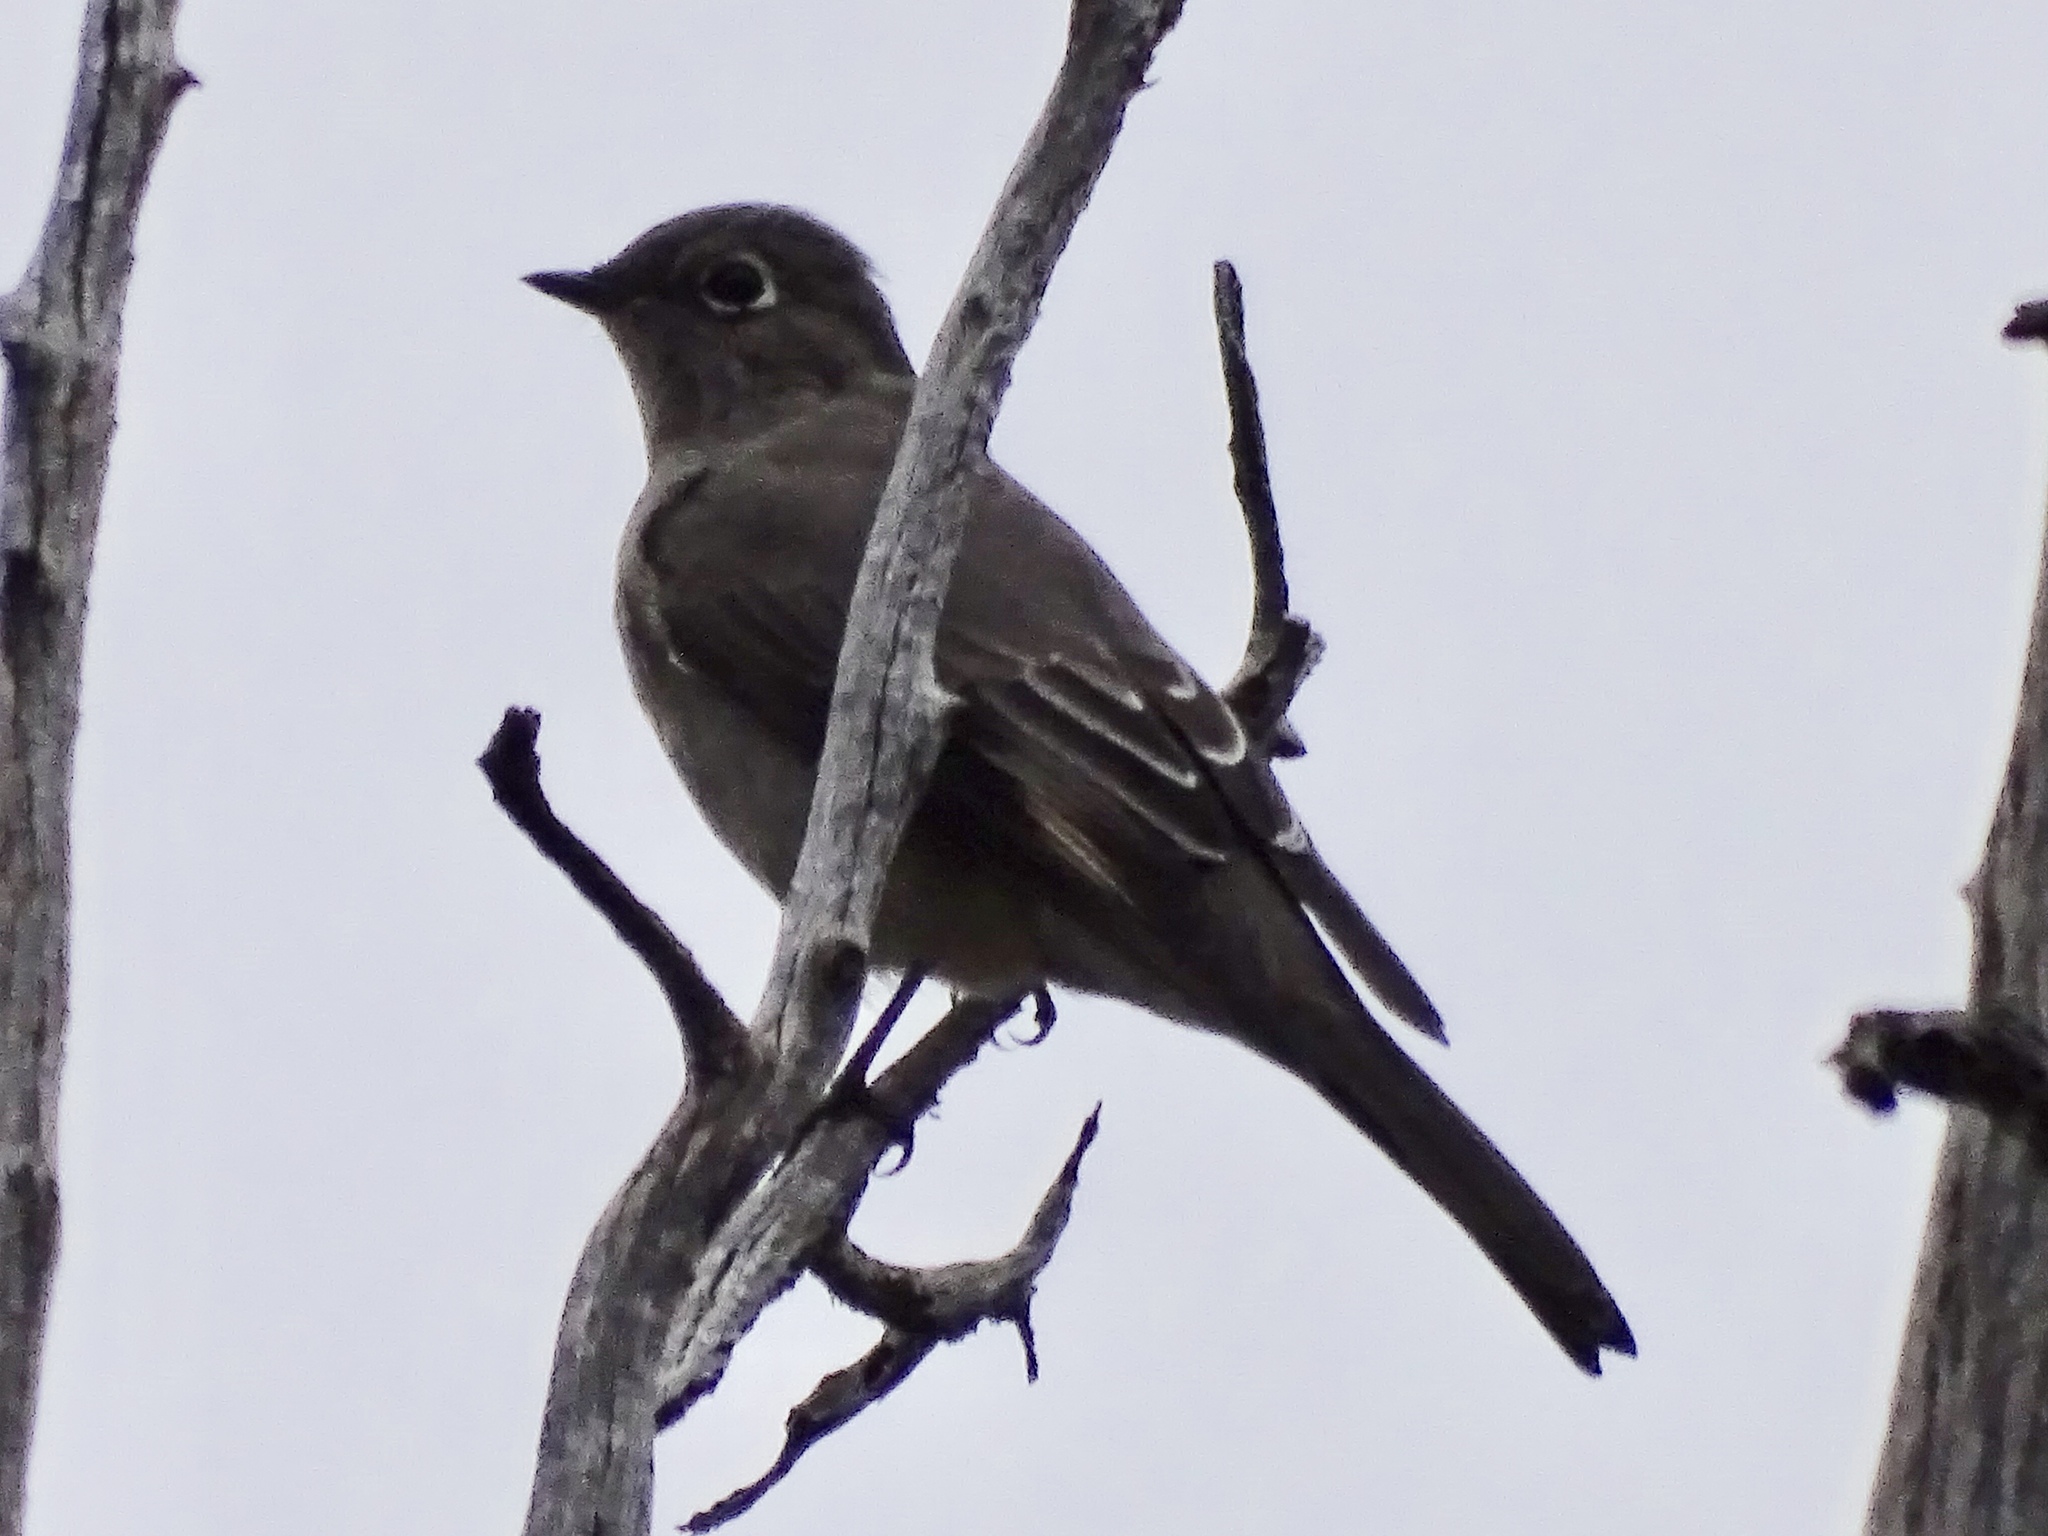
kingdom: Animalia
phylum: Chordata
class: Aves
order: Passeriformes
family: Turdidae
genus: Myadestes
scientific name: Myadestes townsendi
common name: Townsend's solitaire
